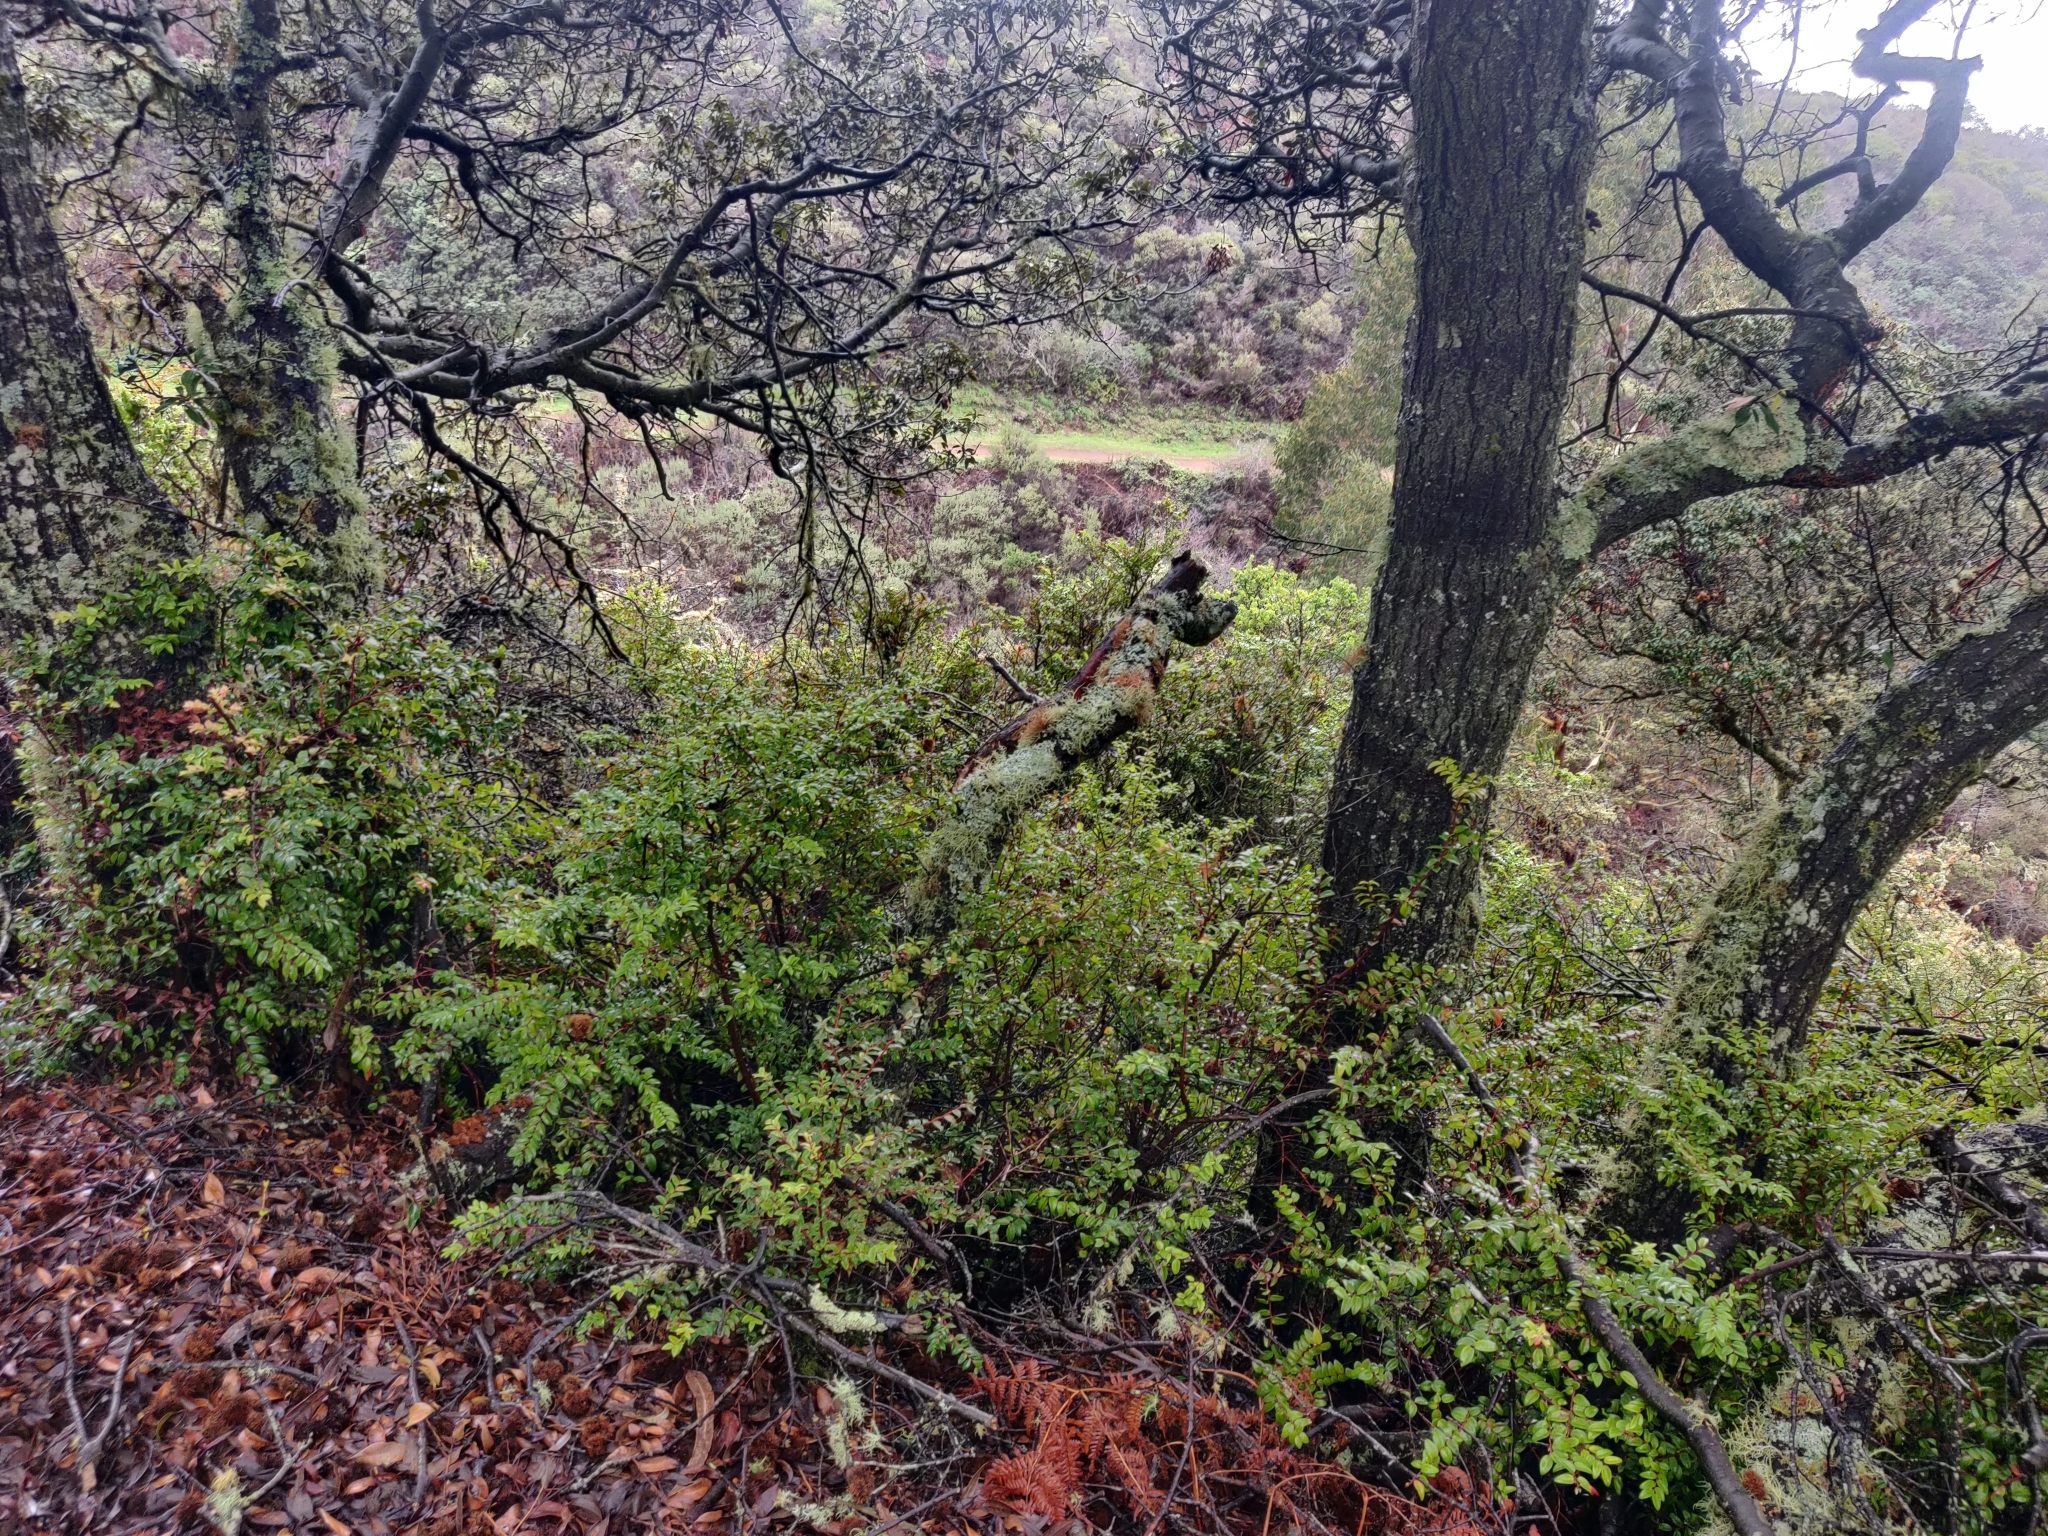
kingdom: Plantae
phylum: Tracheophyta
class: Magnoliopsida
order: Ericales
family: Ericaceae
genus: Vaccinium
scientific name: Vaccinium ovatum
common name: California-huckleberry
